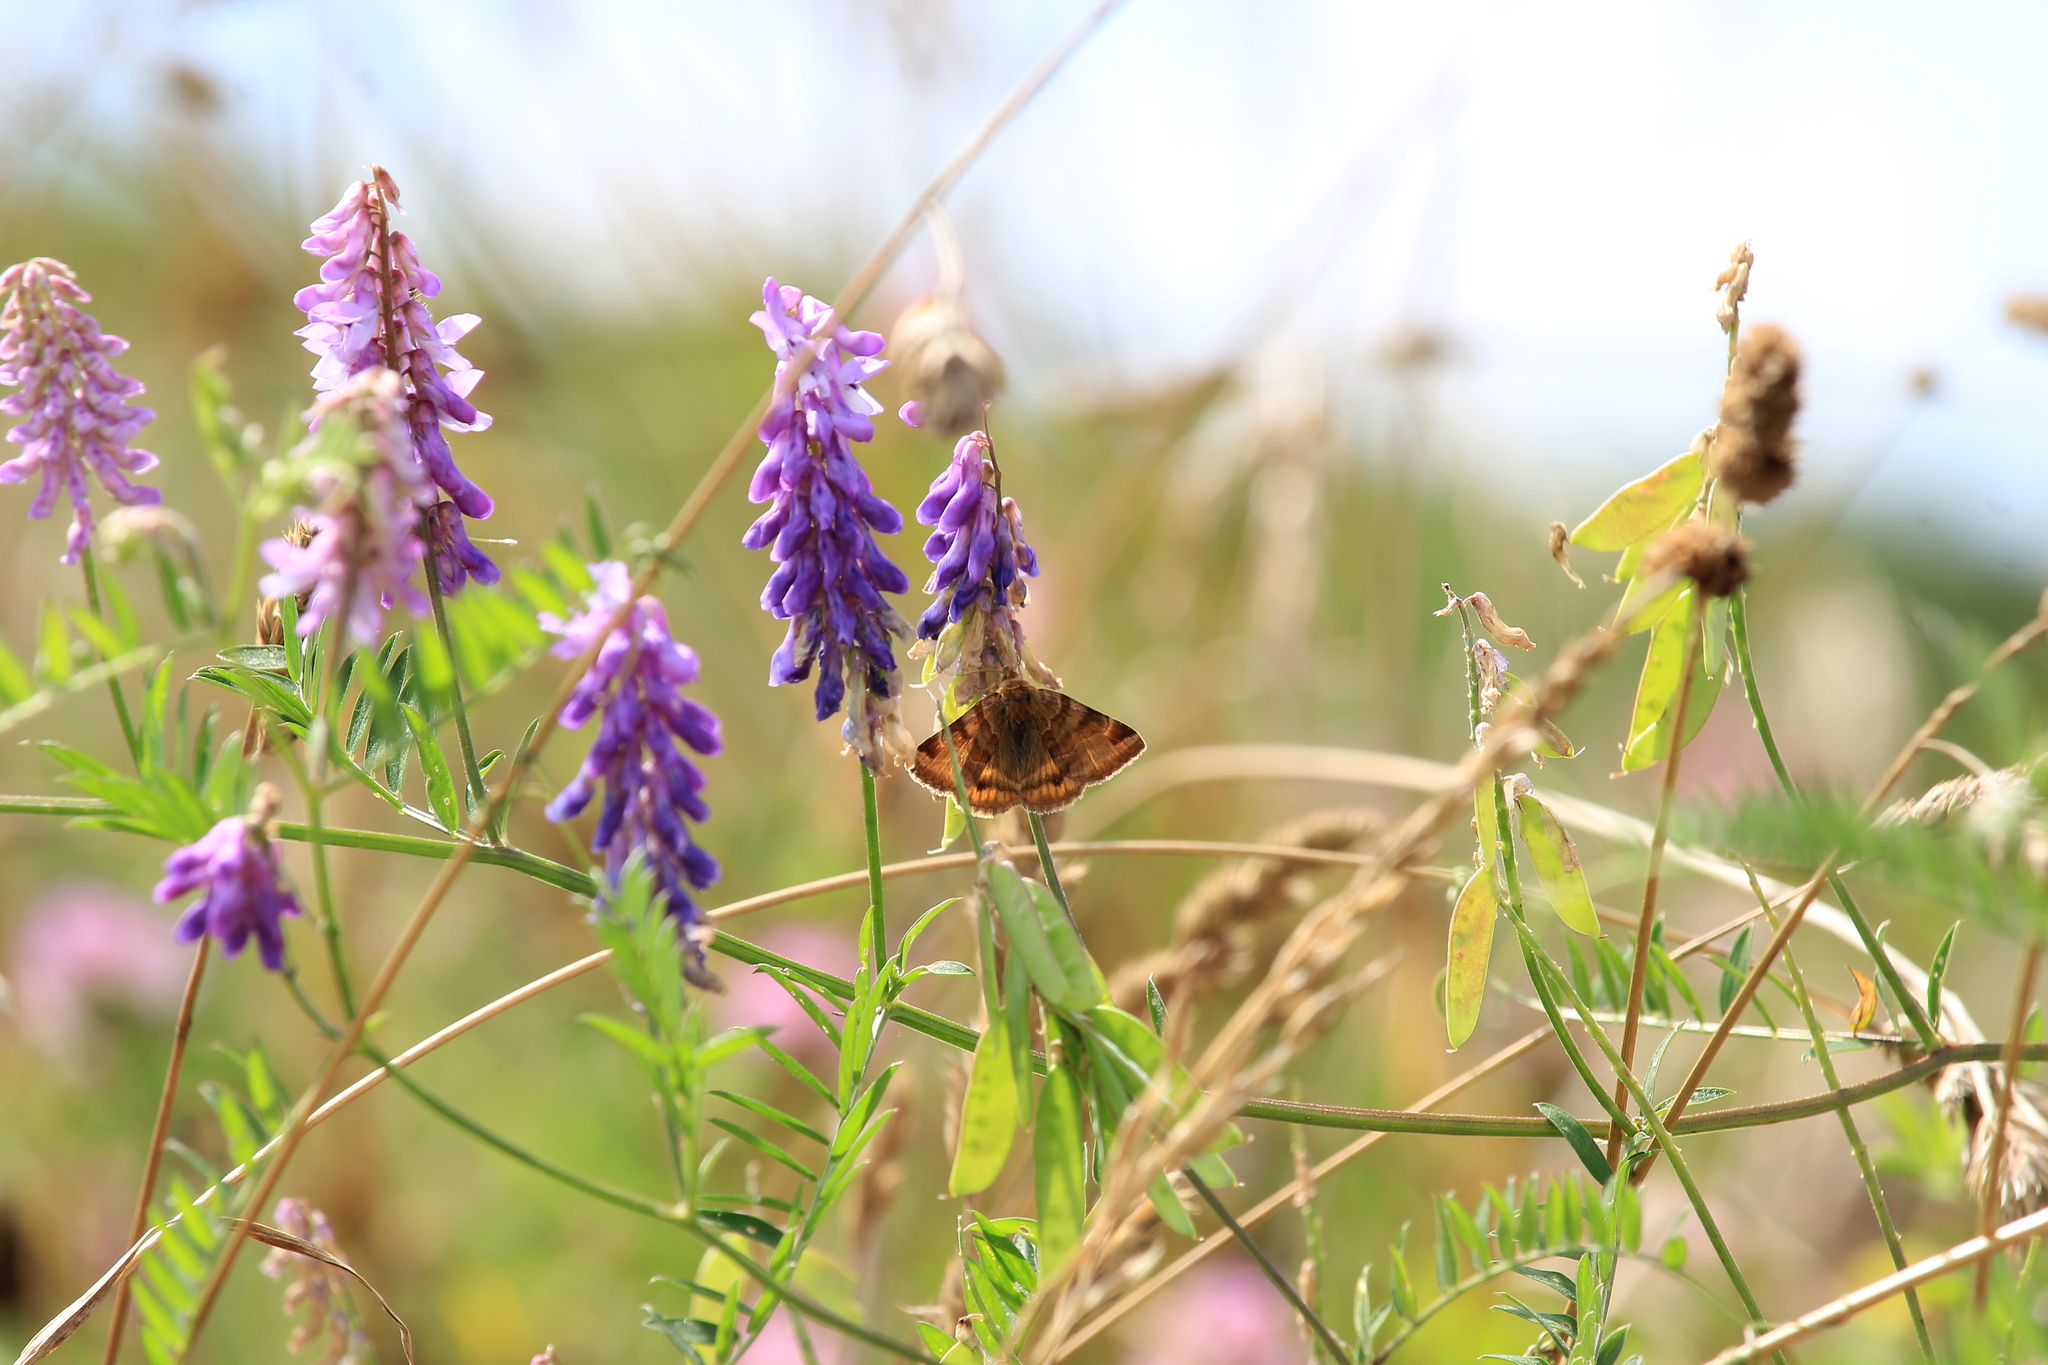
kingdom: Animalia
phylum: Arthropoda
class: Insecta
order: Lepidoptera
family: Erebidae
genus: Euclidia
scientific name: Euclidia glyphica
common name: Burnet companion
